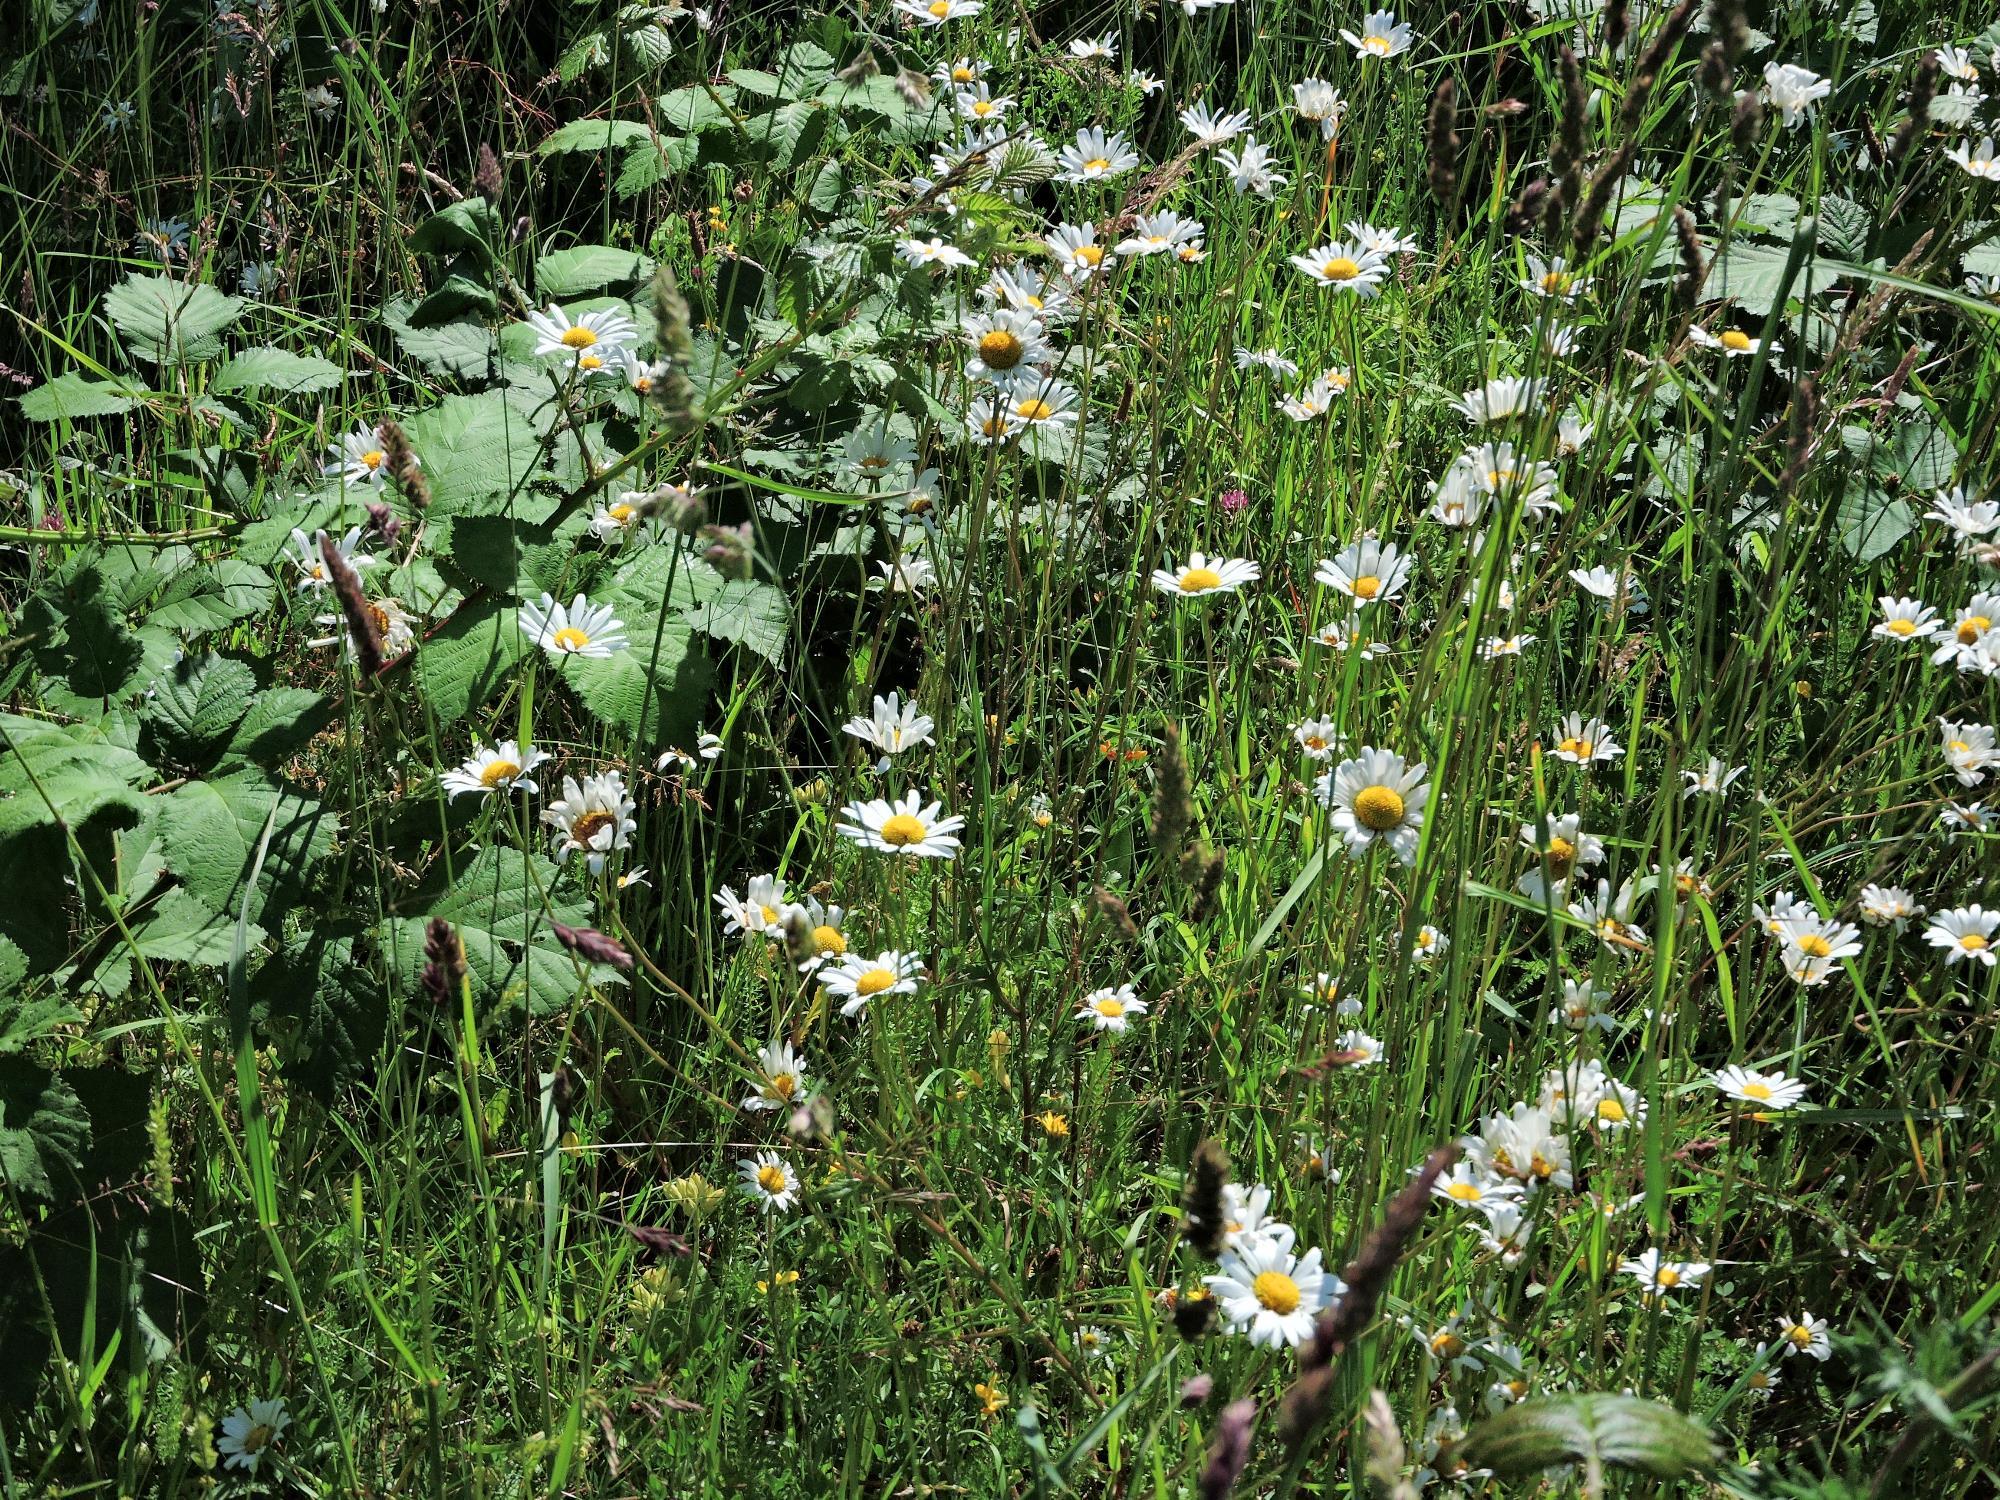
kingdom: Plantae
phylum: Tracheophyta
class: Magnoliopsida
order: Asterales
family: Asteraceae
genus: Leucanthemum
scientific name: Leucanthemum vulgare
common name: Oxeye daisy
